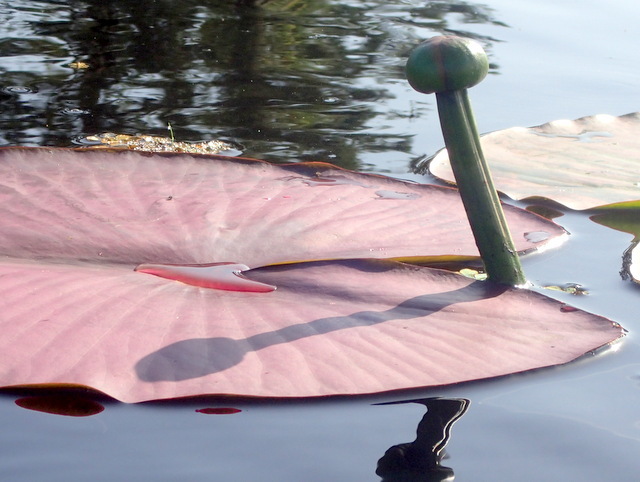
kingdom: Plantae
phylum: Tracheophyta
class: Magnoliopsida
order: Nymphaeales
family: Nymphaeaceae
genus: Nuphar
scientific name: Nuphar advena
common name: Spatter-dock
